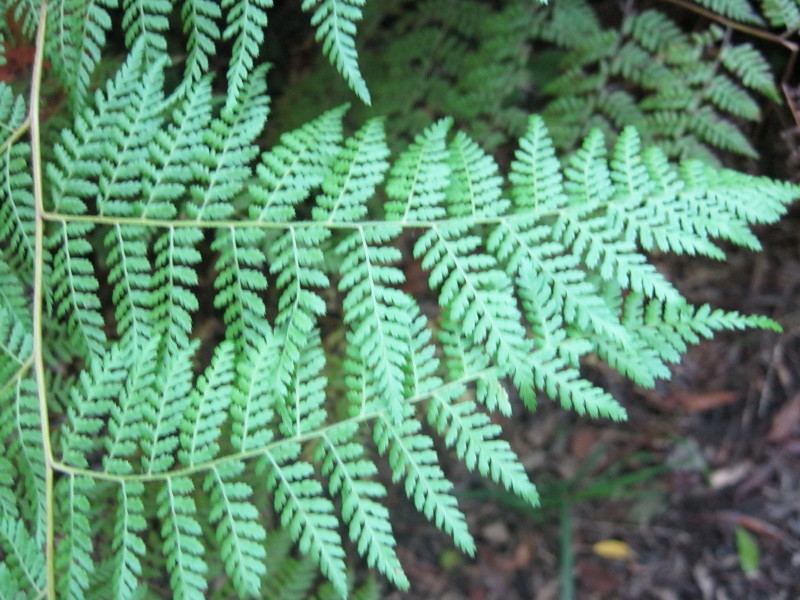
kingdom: Plantae
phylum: Tracheophyta
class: Polypodiopsida
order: Polypodiales
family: Dennstaedtiaceae
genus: Hypolepis
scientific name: Hypolepis sparsisora
